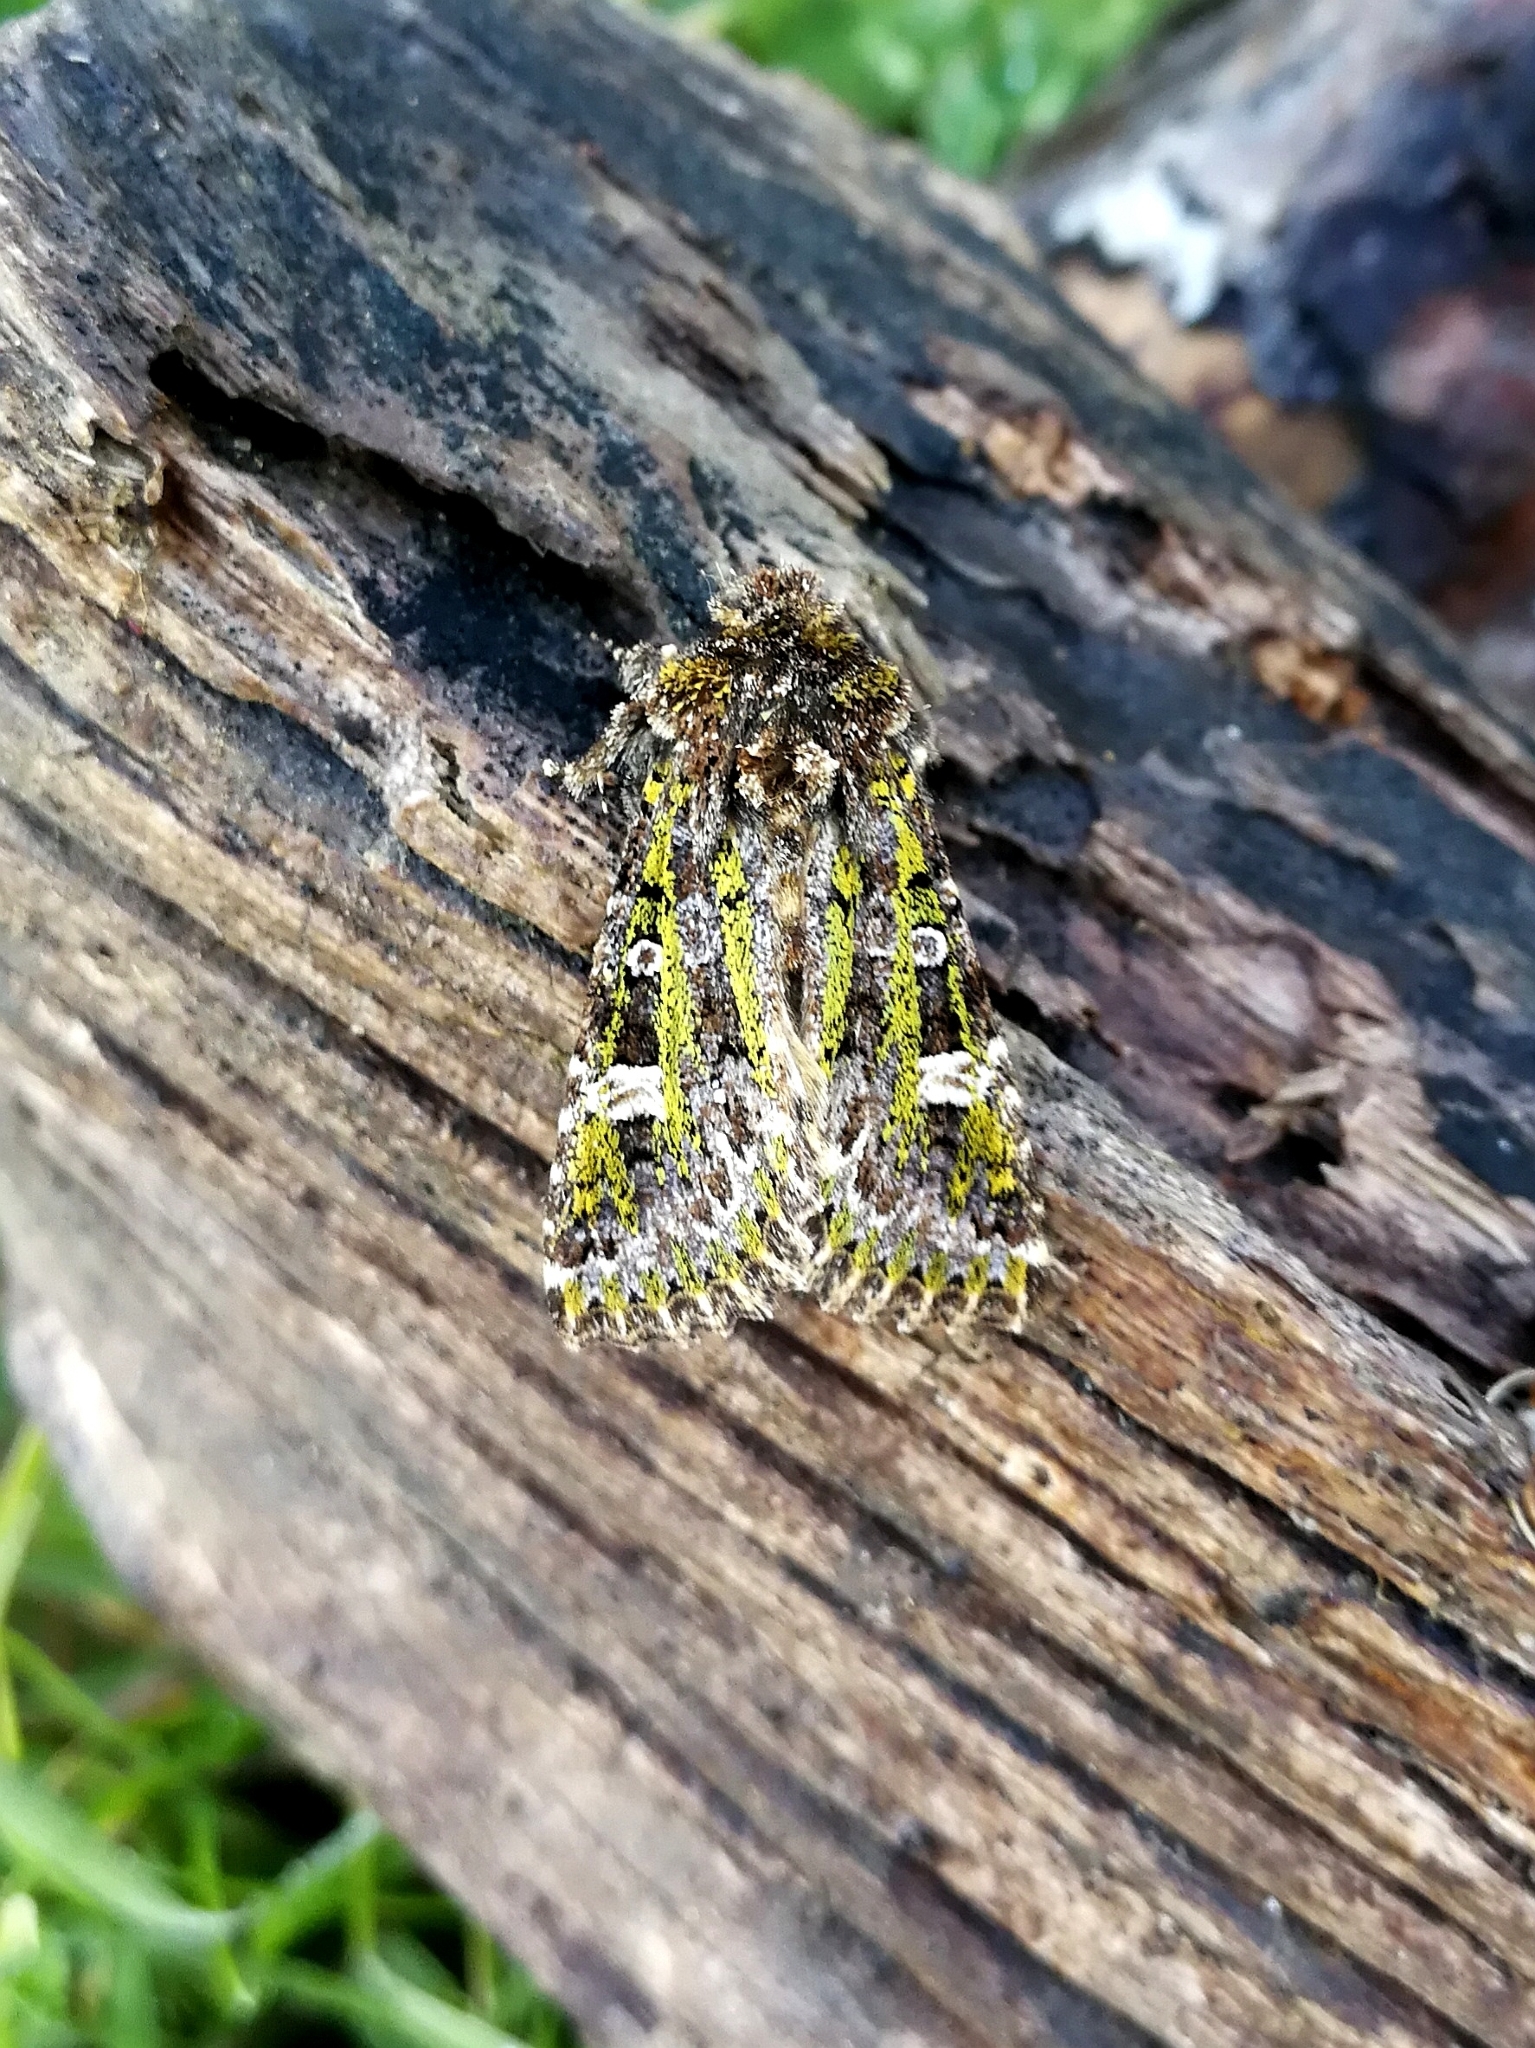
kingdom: Animalia
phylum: Arthropoda
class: Insecta
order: Lepidoptera
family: Noctuidae
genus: Valeria
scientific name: Valeria jaspidea
